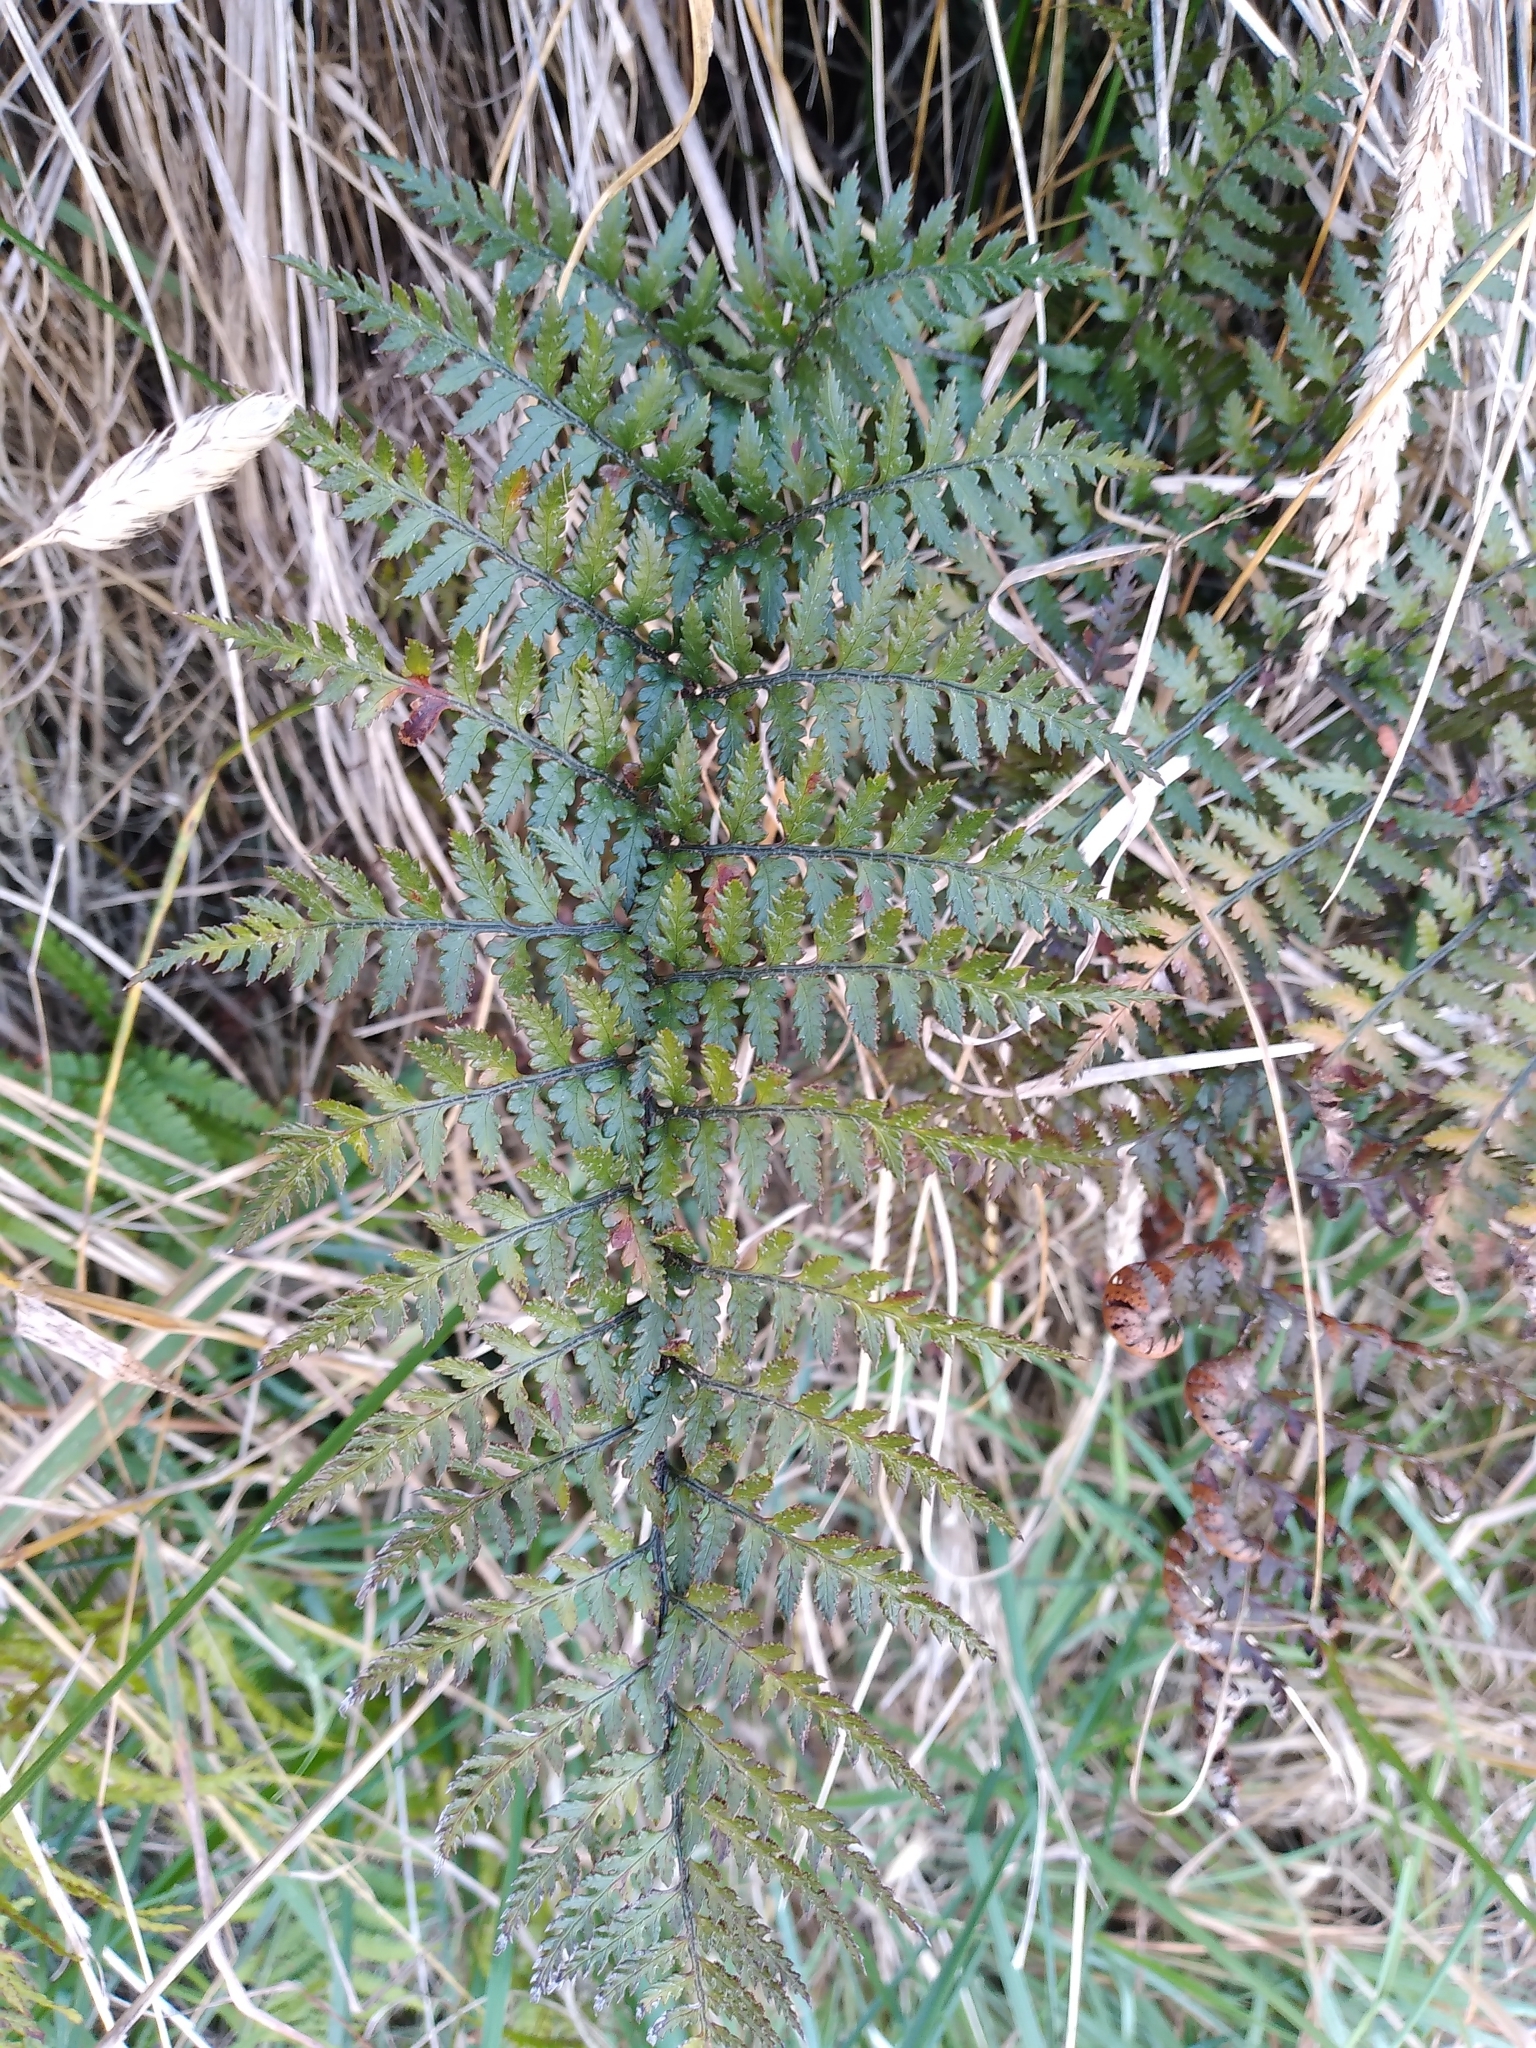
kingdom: Plantae
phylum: Tracheophyta
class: Polypodiopsida
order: Polypodiales
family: Dryopteridaceae
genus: Polystichum
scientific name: Polystichum neozelandicum
